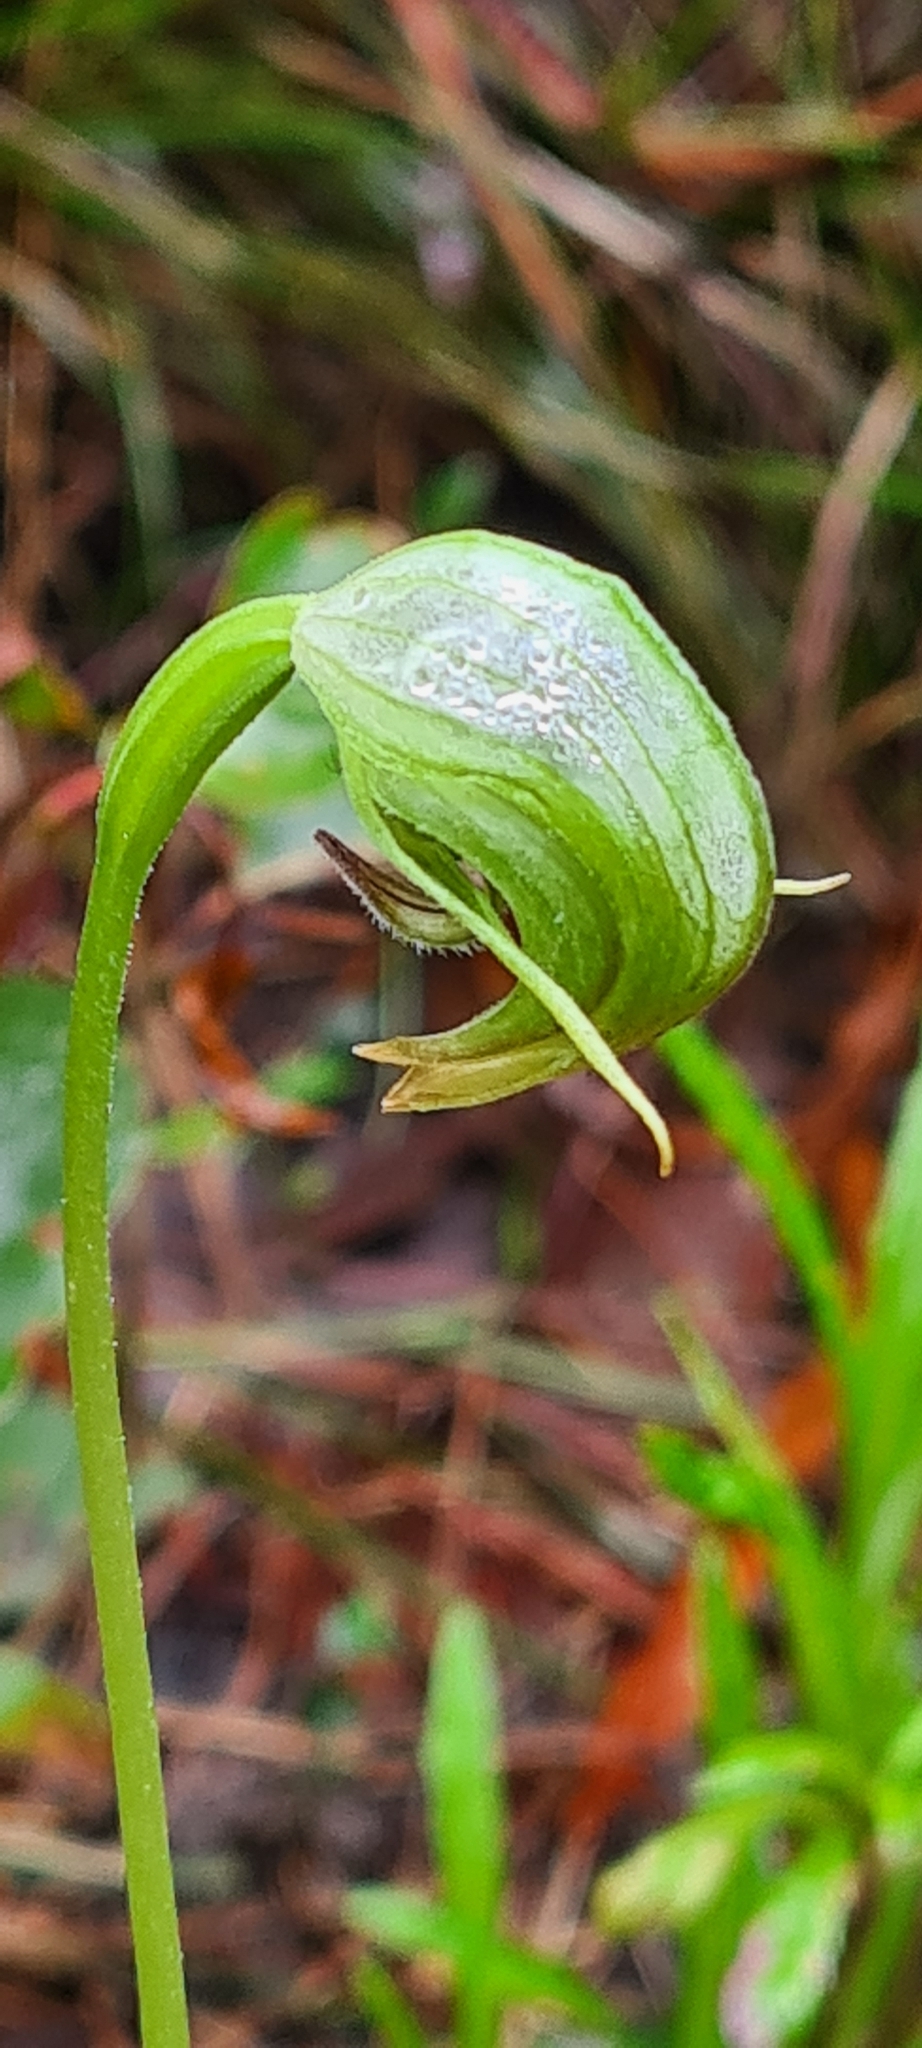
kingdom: Plantae
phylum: Tracheophyta
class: Liliopsida
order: Asparagales
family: Orchidaceae
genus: Pterostylis
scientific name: Pterostylis nutans
